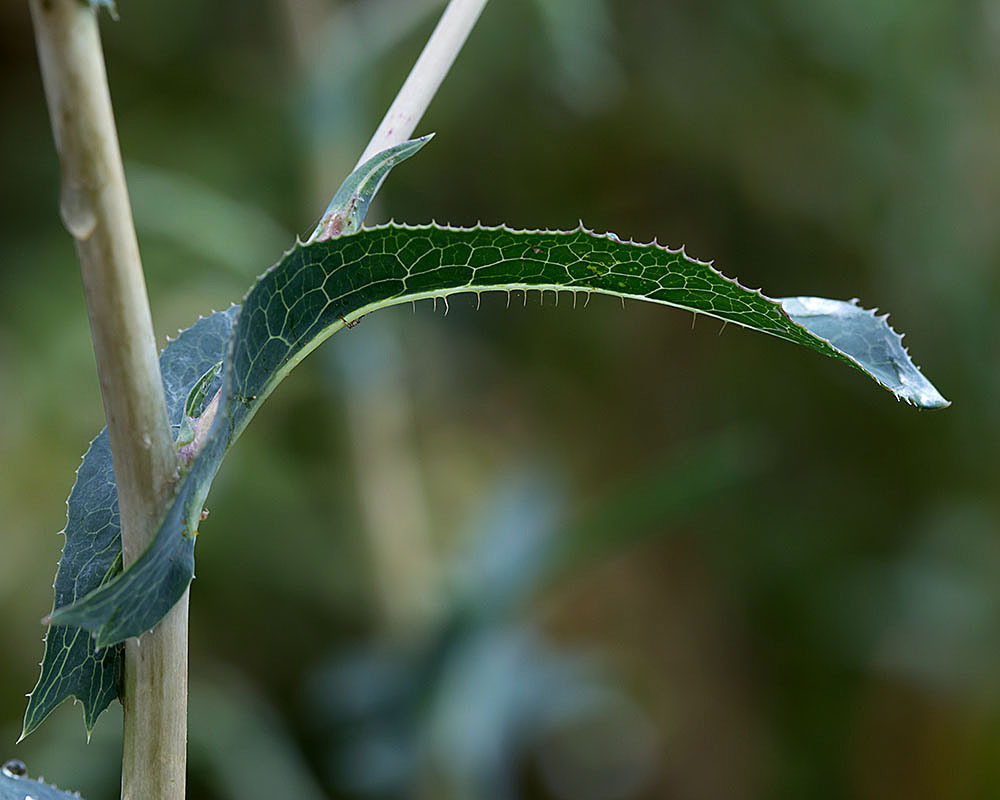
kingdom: Plantae
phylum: Tracheophyta
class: Magnoliopsida
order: Asterales
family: Asteraceae
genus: Lactuca
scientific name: Lactuca serriola
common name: Prickly lettuce
